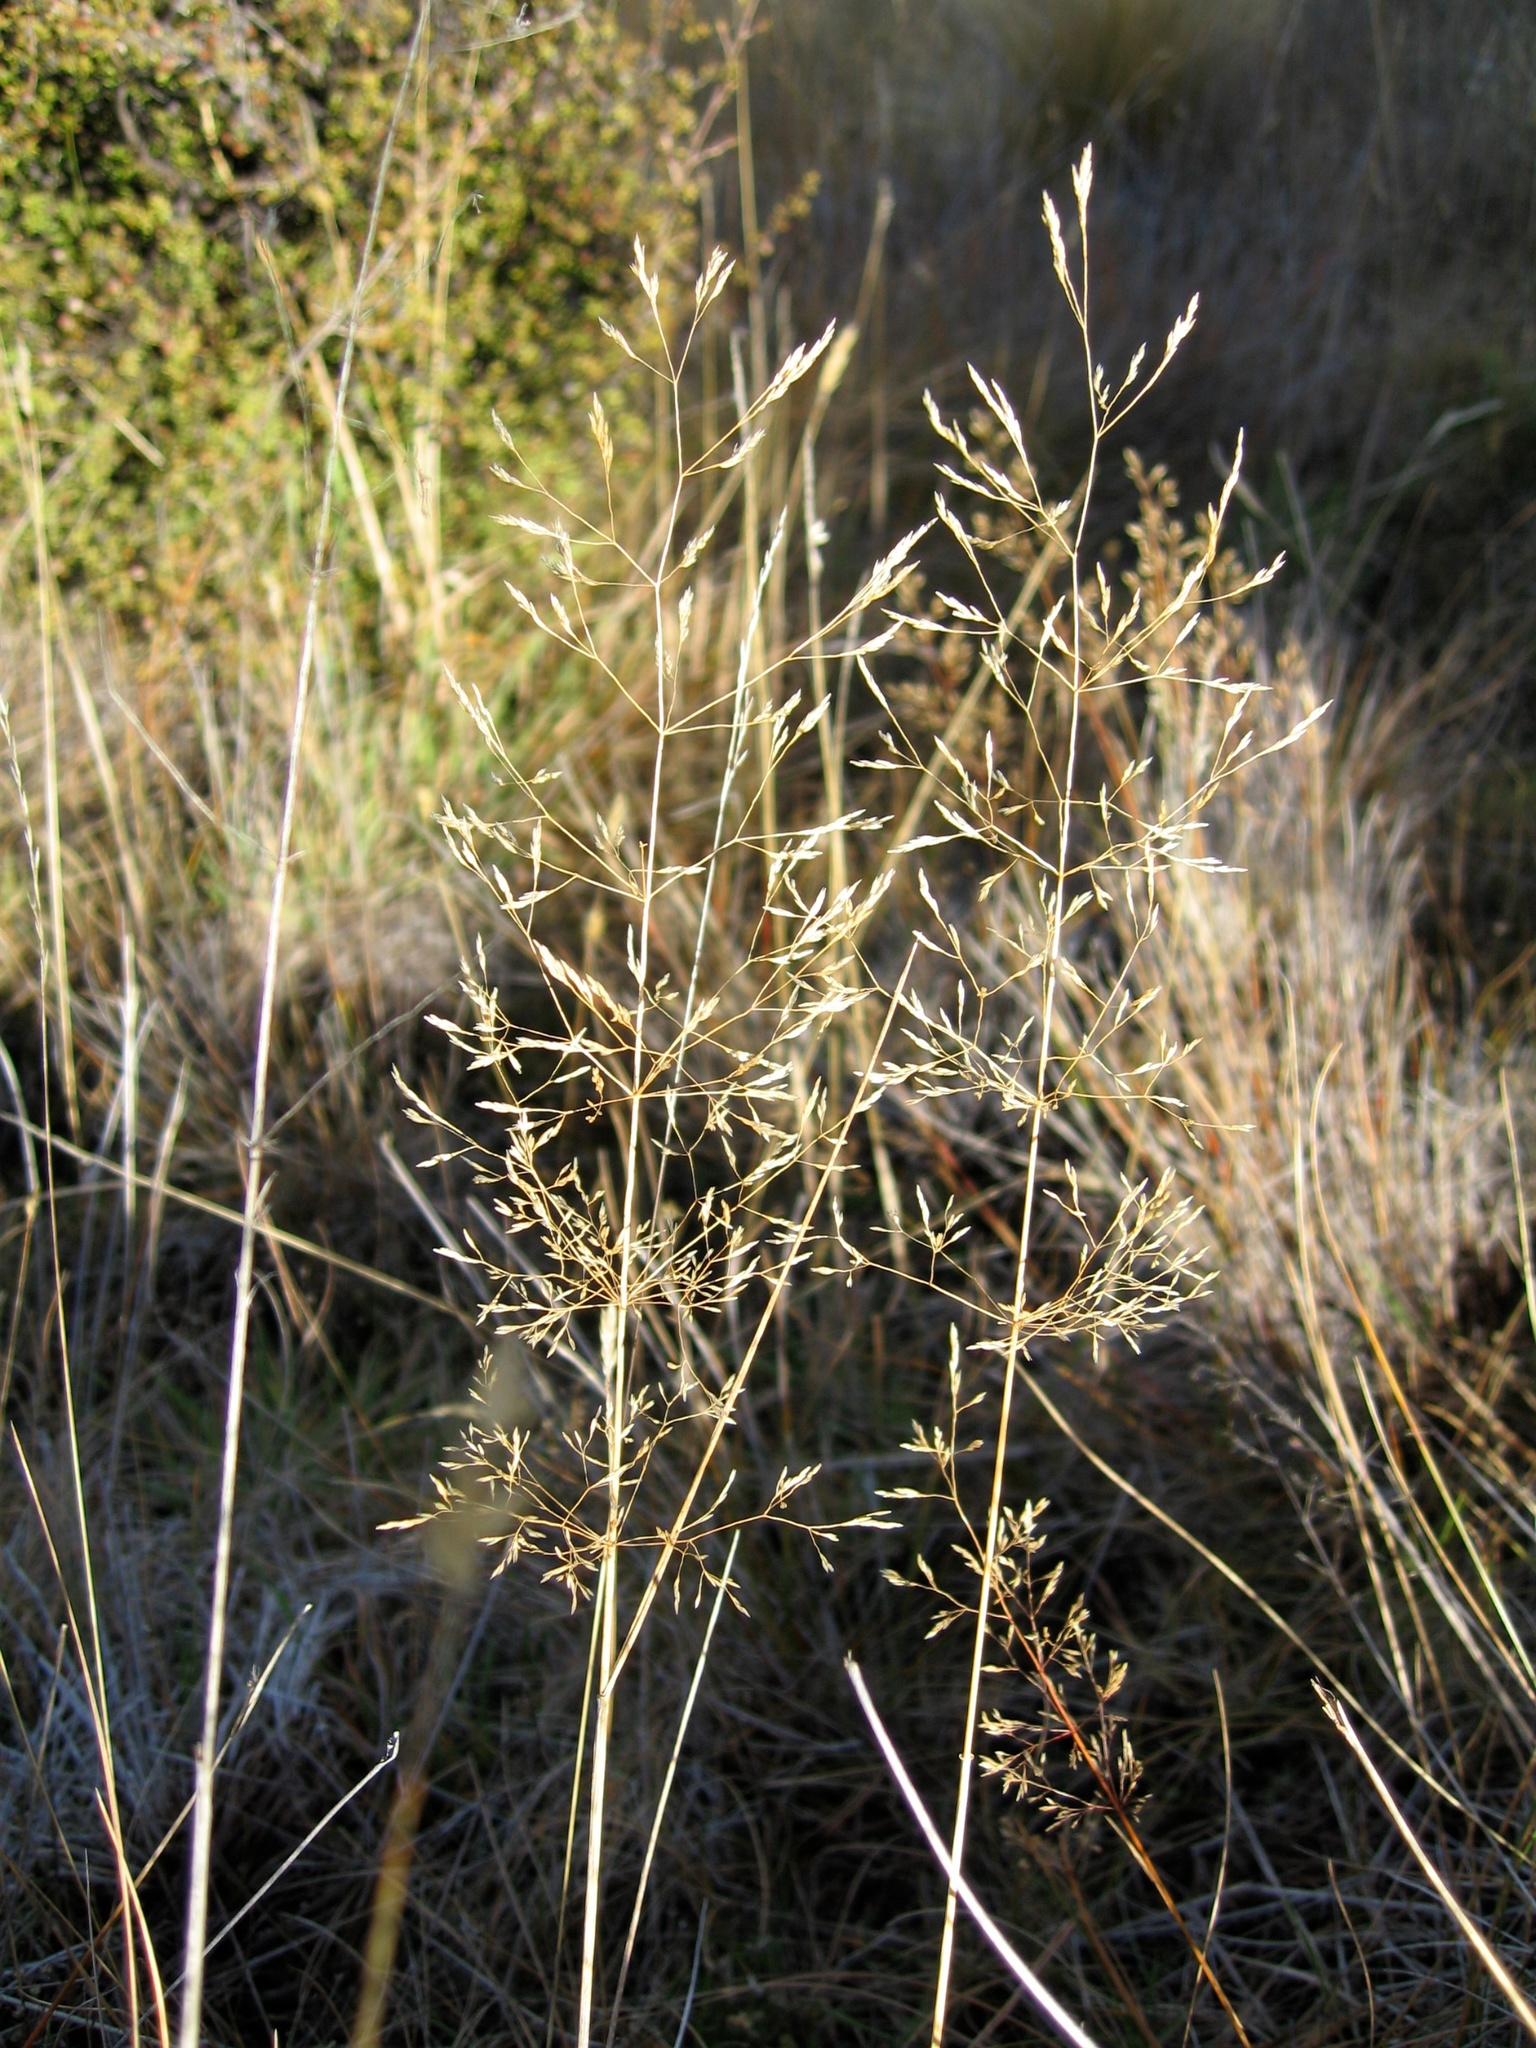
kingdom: Plantae
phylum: Tracheophyta
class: Liliopsida
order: Poales
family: Poaceae
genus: Agrostis
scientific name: Agrostis capillaris
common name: Colonial bentgrass
